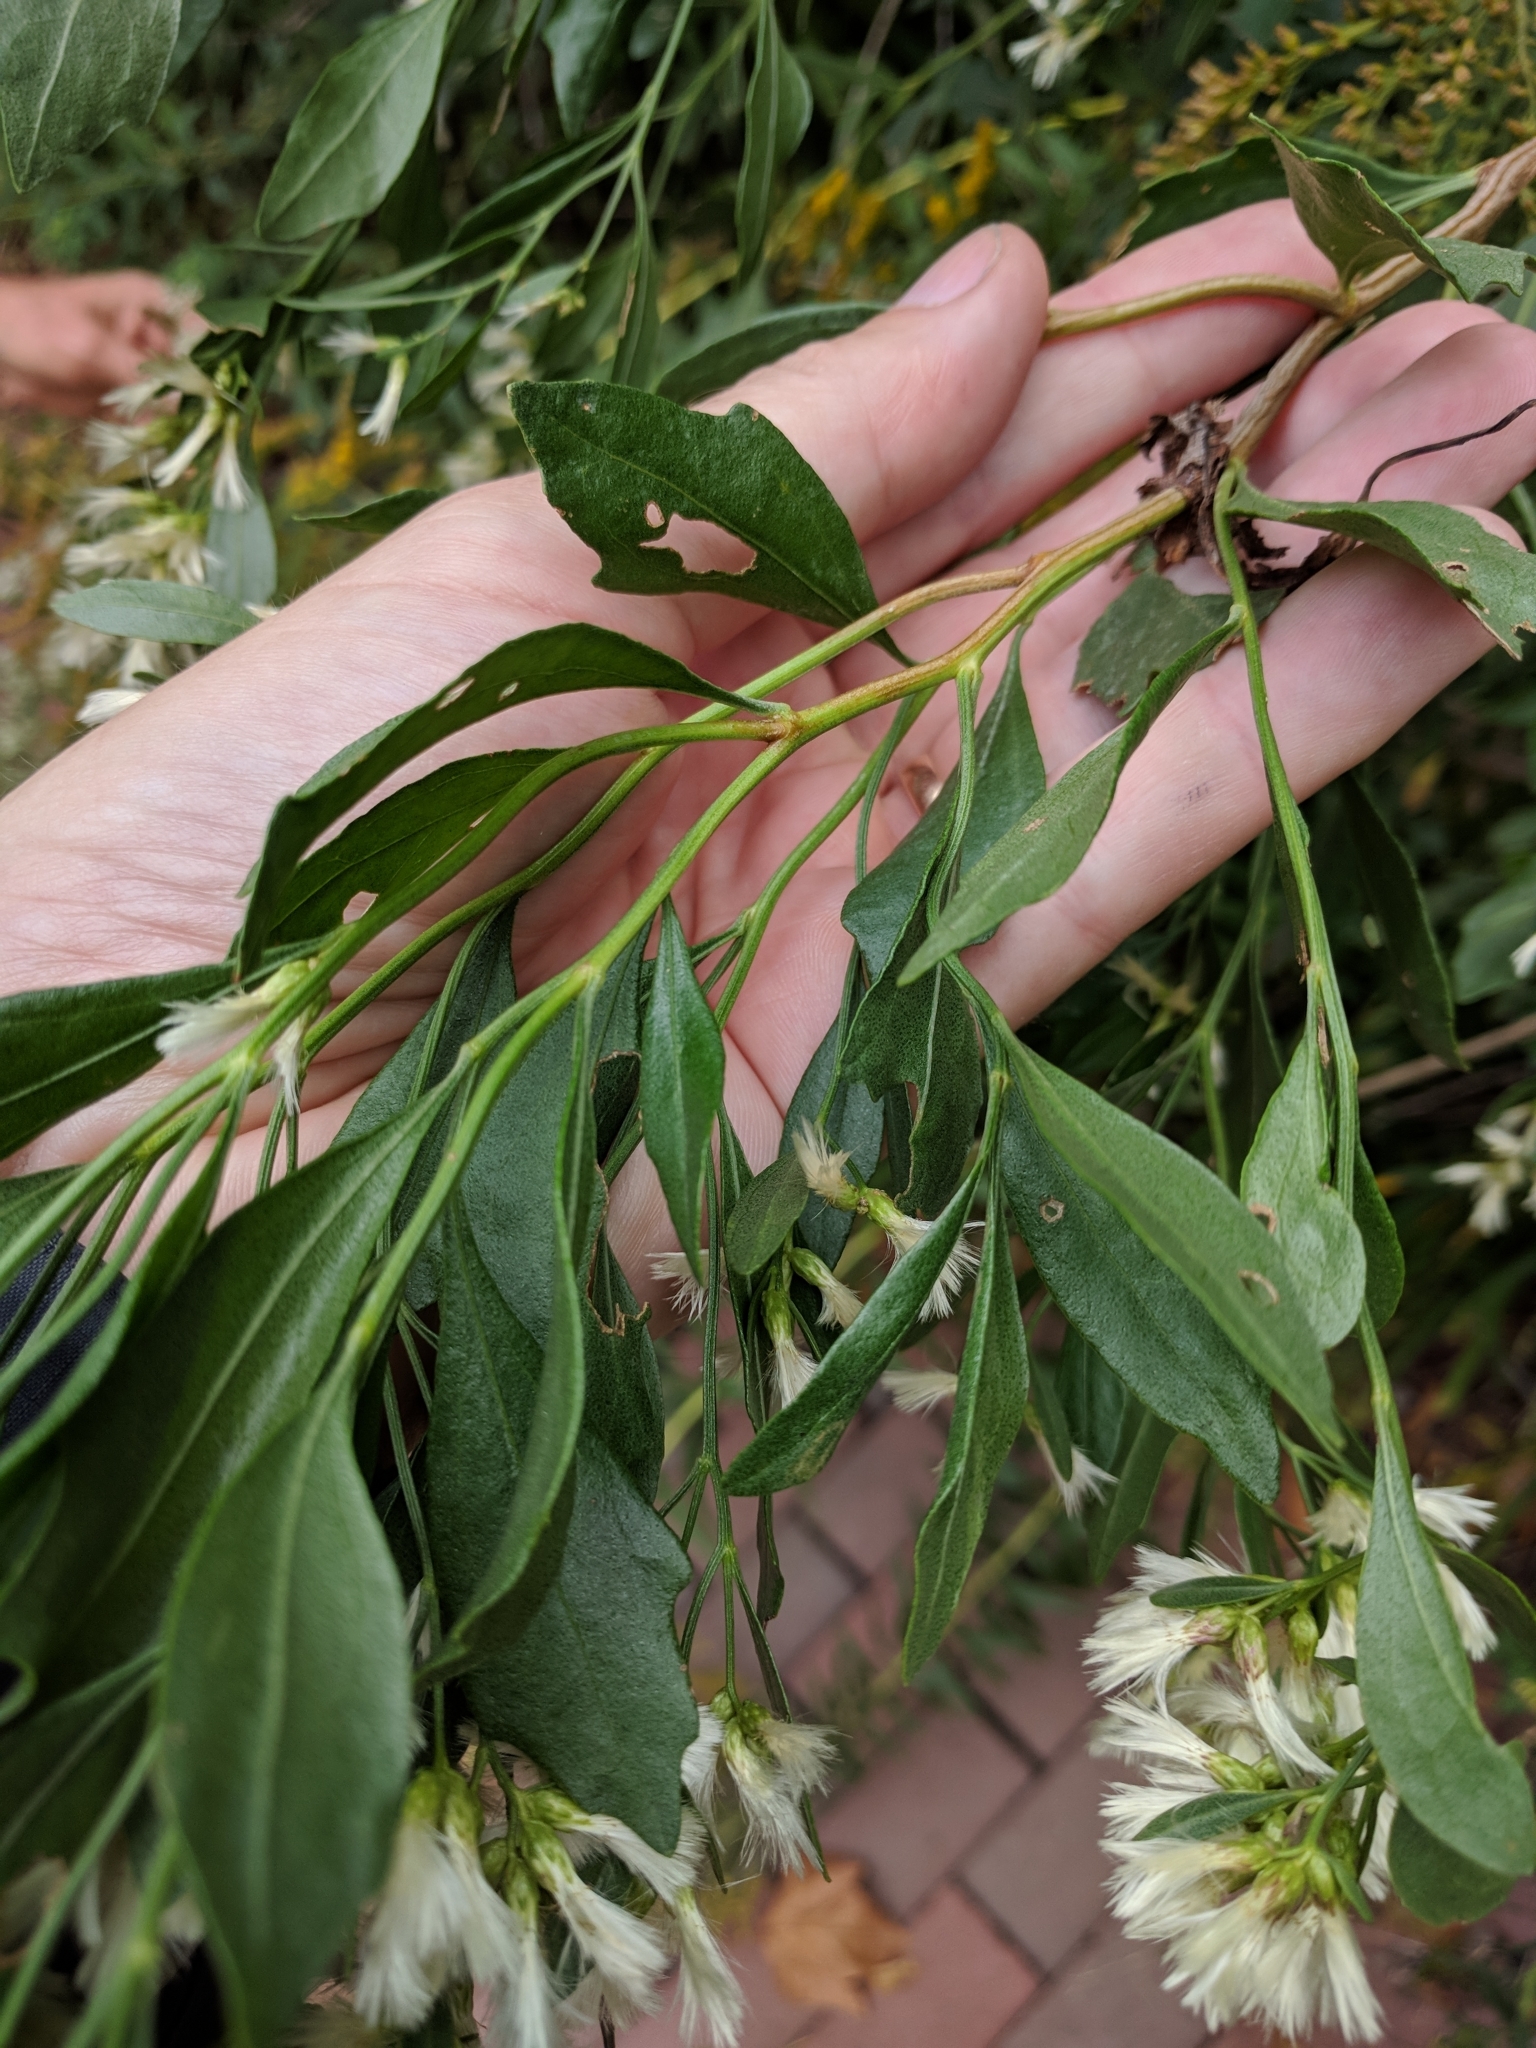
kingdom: Plantae
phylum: Tracheophyta
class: Magnoliopsida
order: Asterales
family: Asteraceae
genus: Baccharis
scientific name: Baccharis halimifolia
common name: Eastern baccharis
